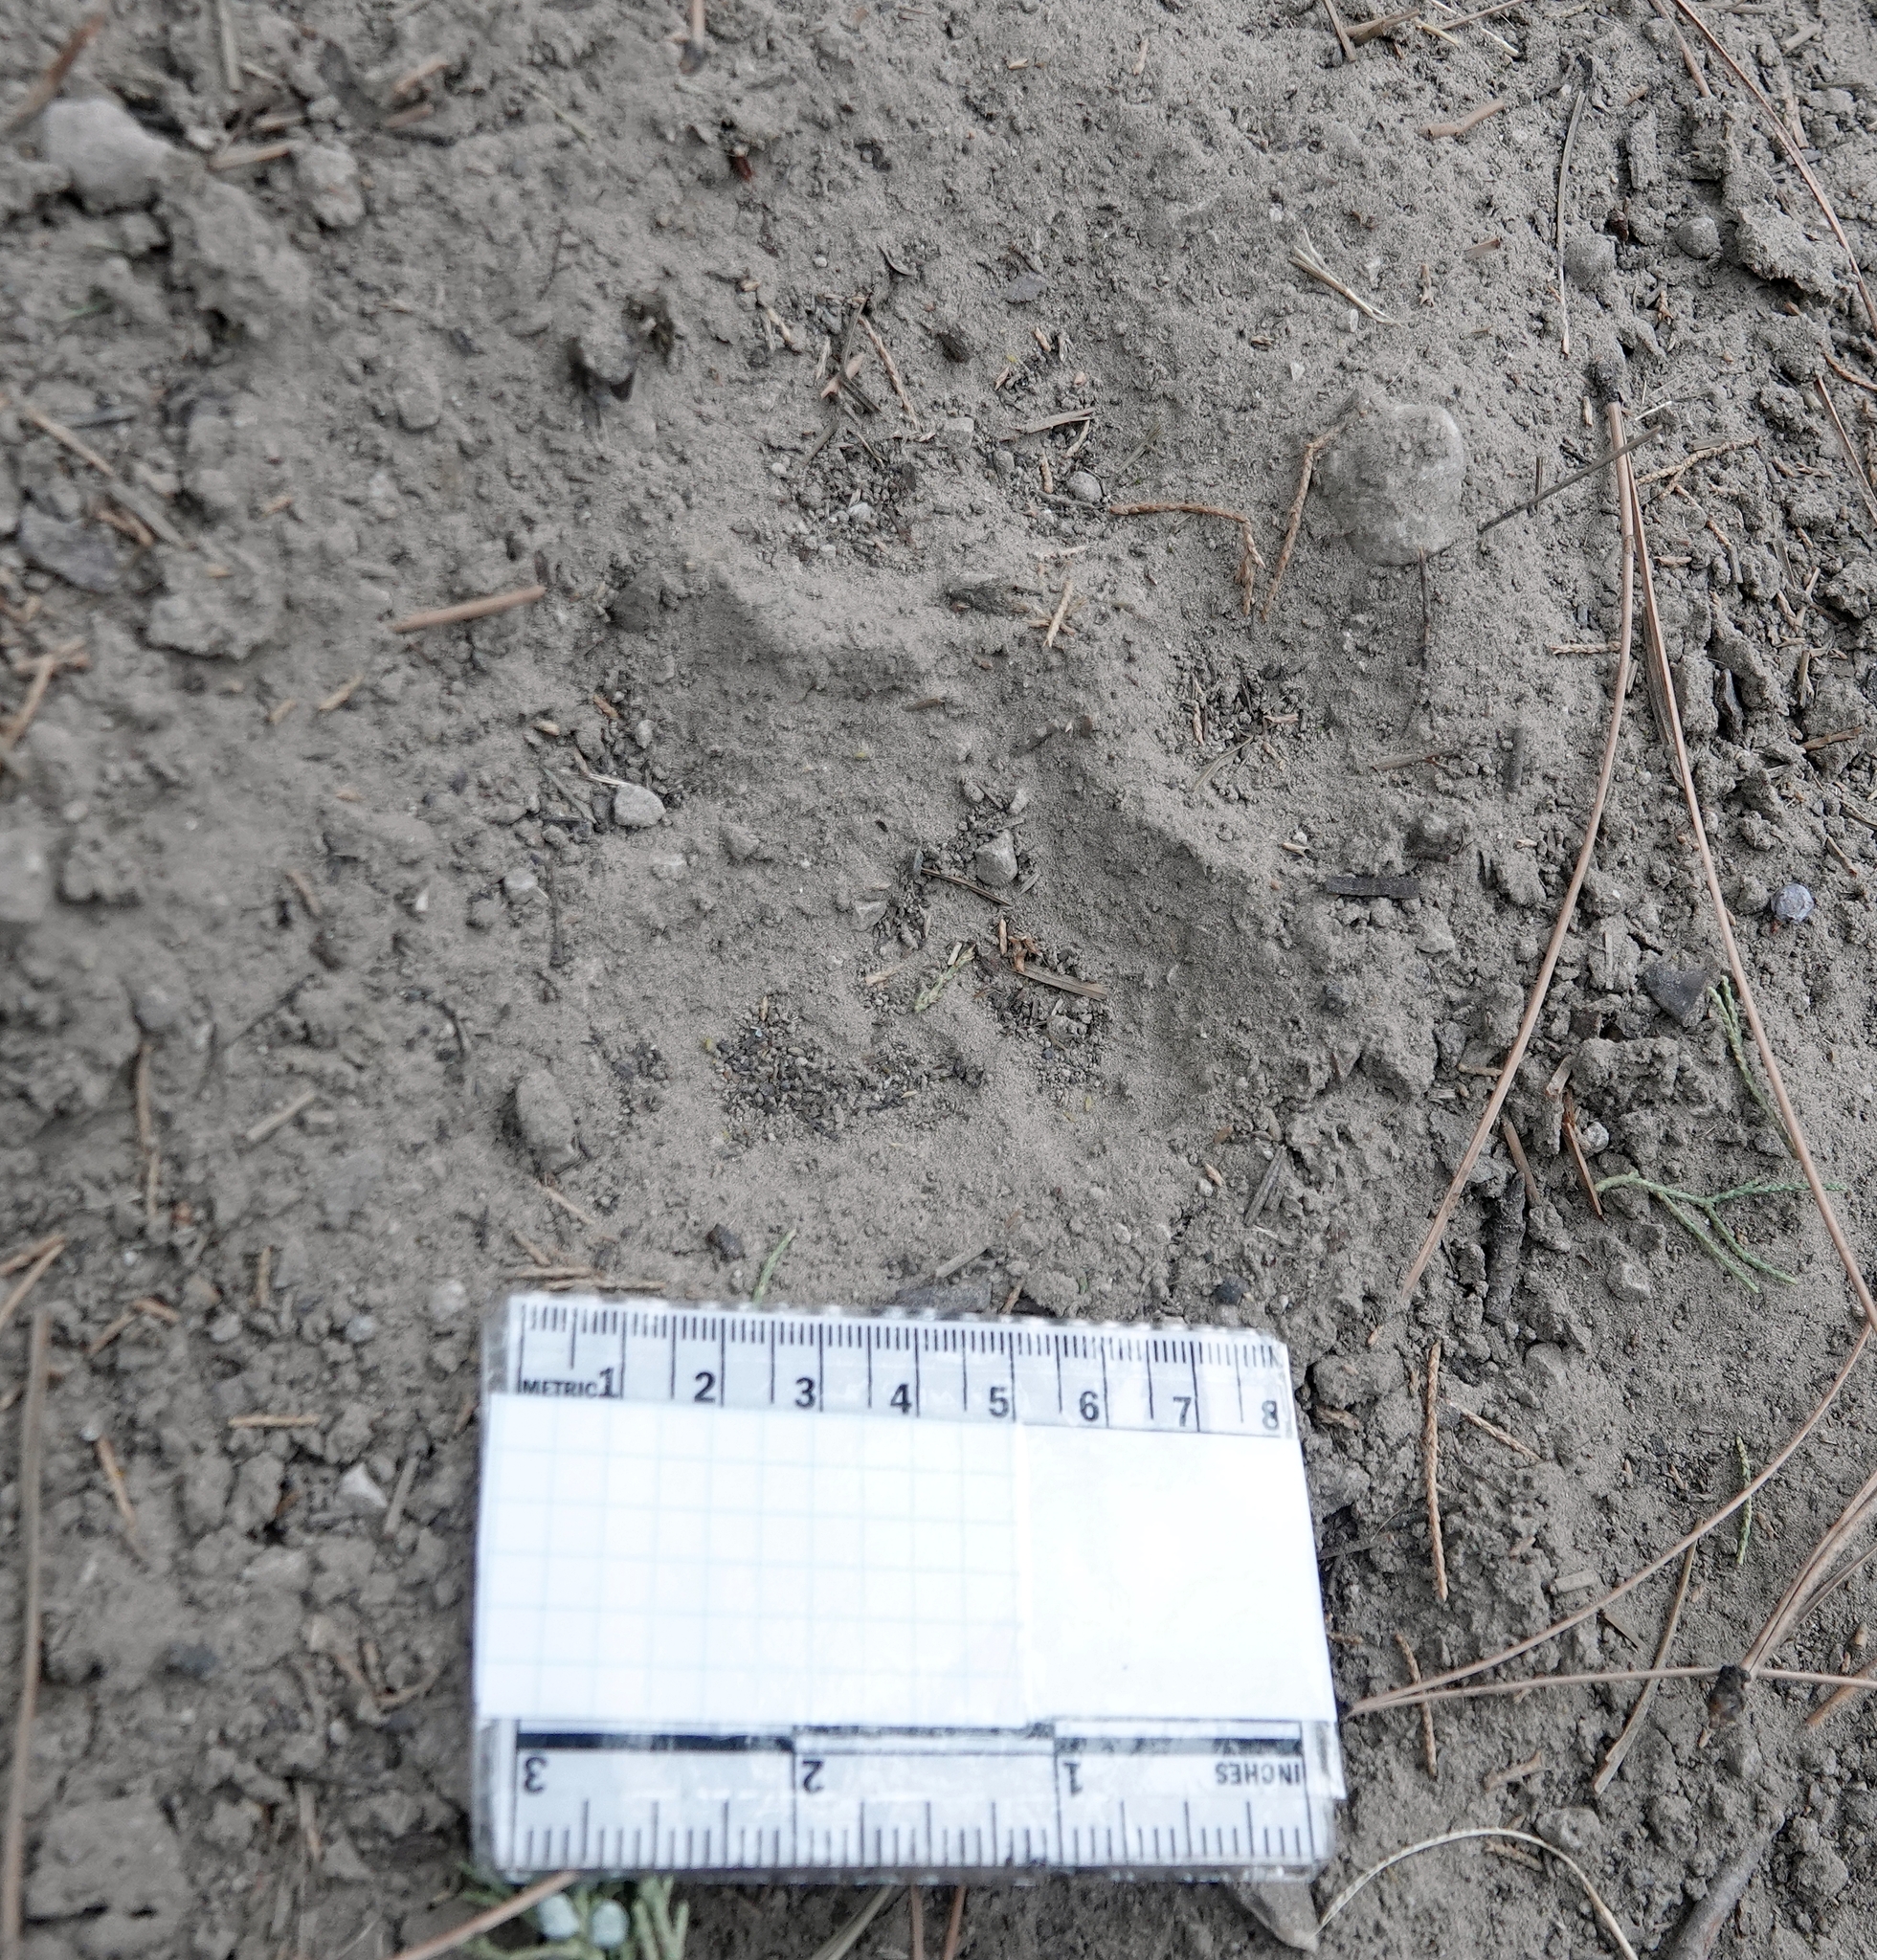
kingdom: Animalia
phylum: Chordata
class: Mammalia
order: Carnivora
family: Felidae
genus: Puma
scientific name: Puma concolor
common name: Puma
